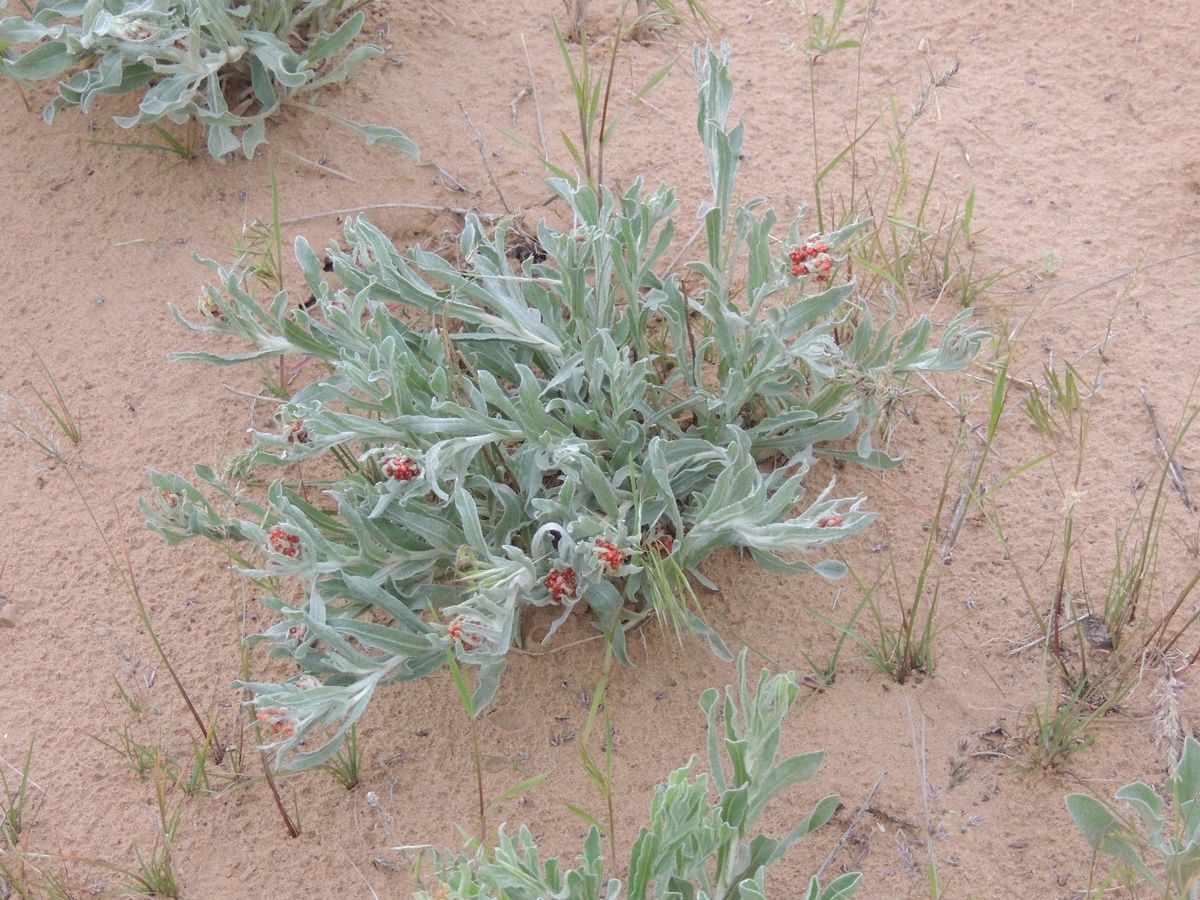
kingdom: Plantae
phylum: Tracheophyta
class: Magnoliopsida
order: Asterales
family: Asteraceae
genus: Helichrysum
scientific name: Helichrysum arenarium
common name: Strawflower
